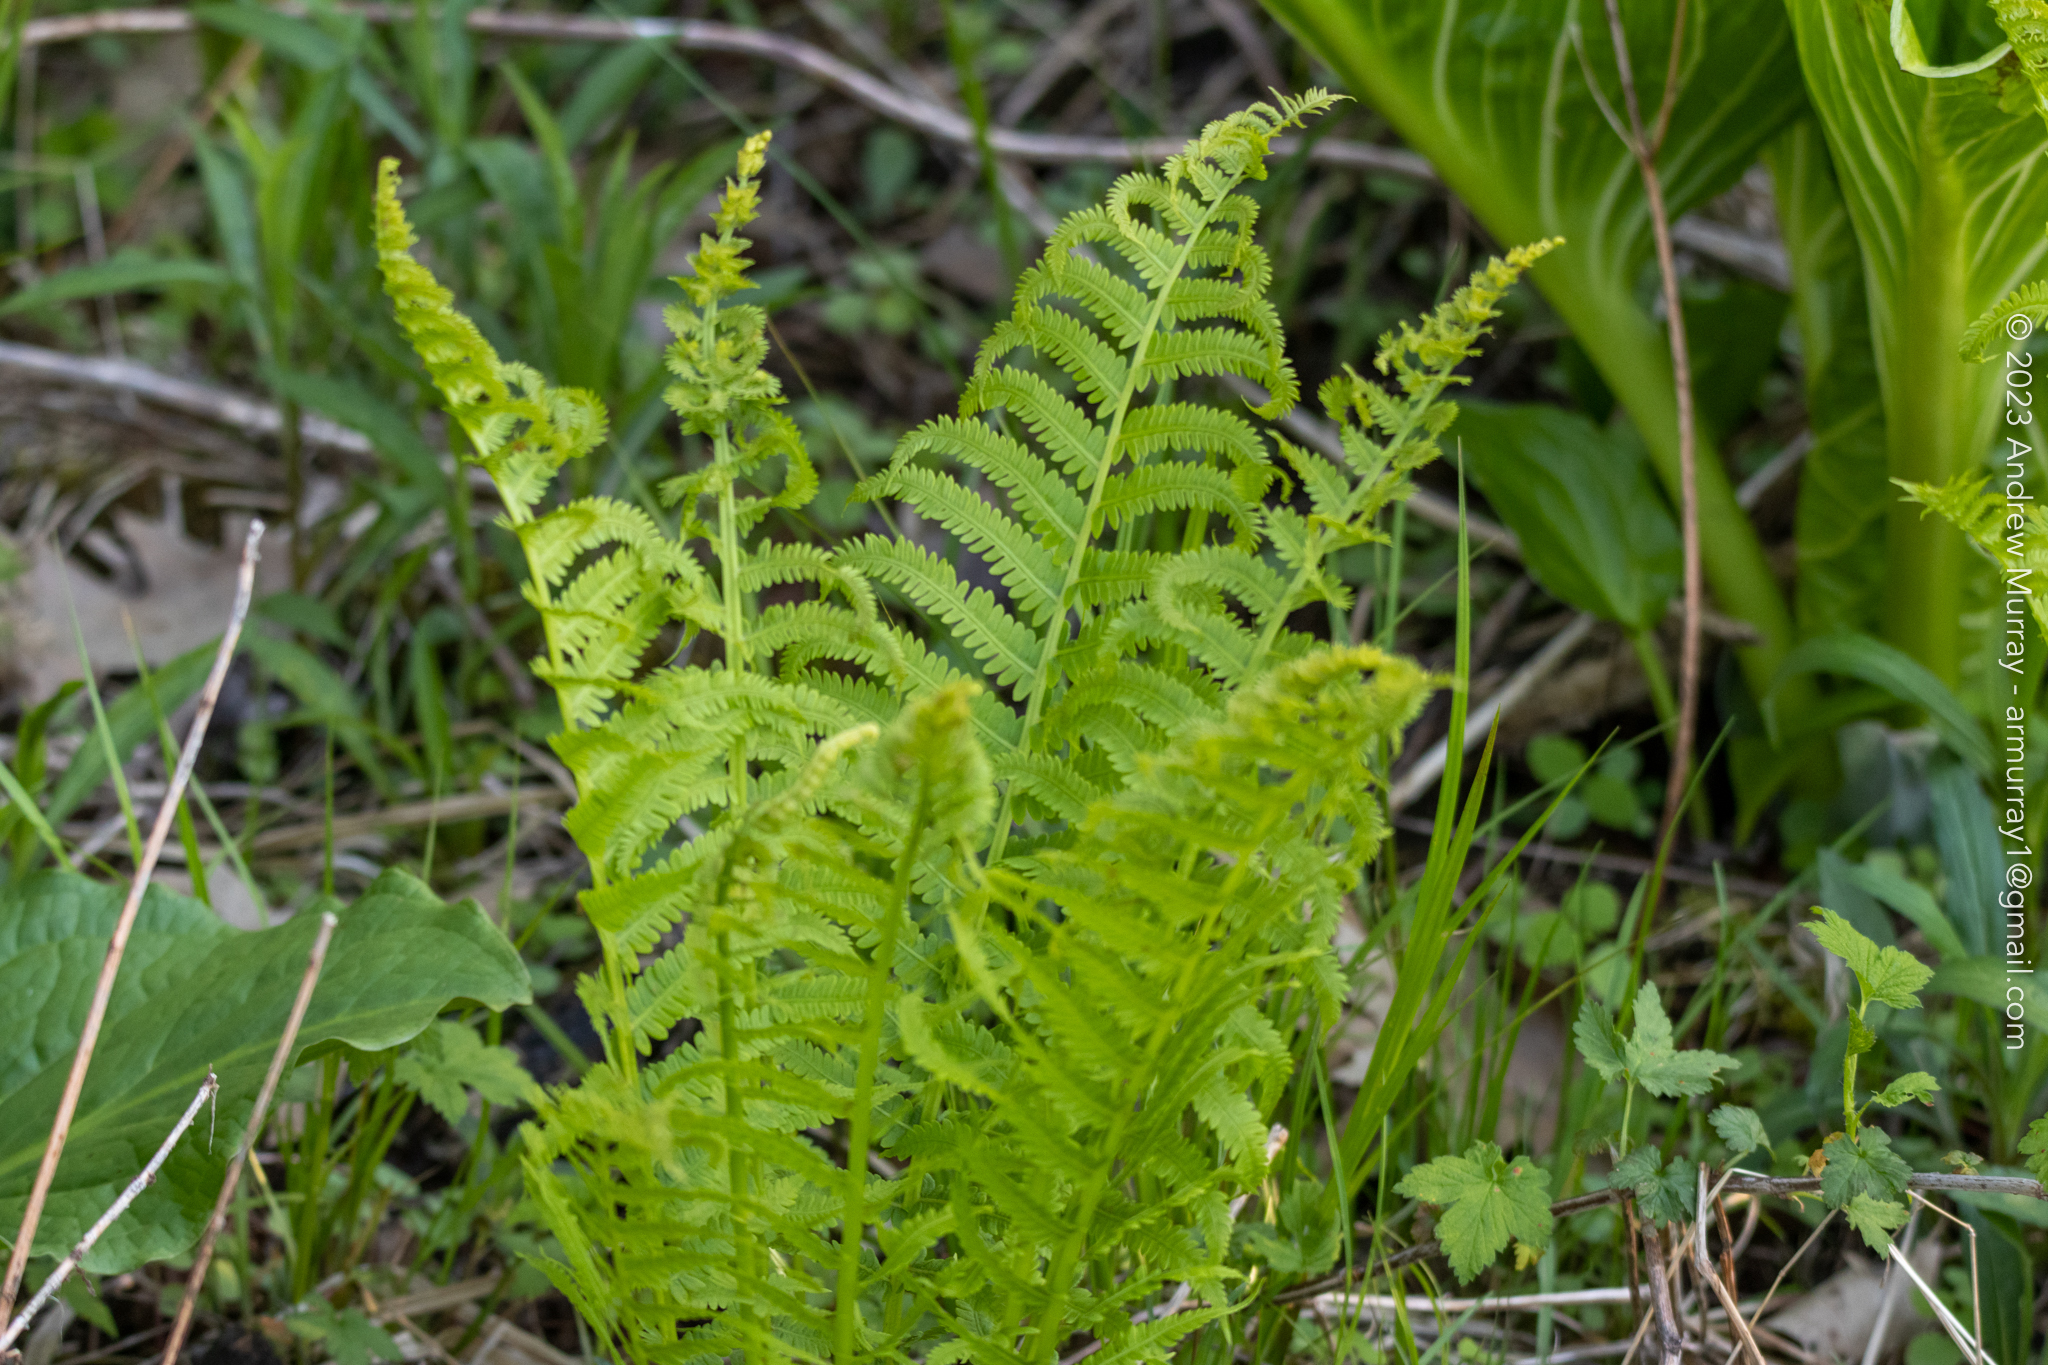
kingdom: Plantae
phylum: Tracheophyta
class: Polypodiopsida
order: Polypodiales
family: Onocleaceae
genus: Matteuccia
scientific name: Matteuccia struthiopteris
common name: Ostrich fern
